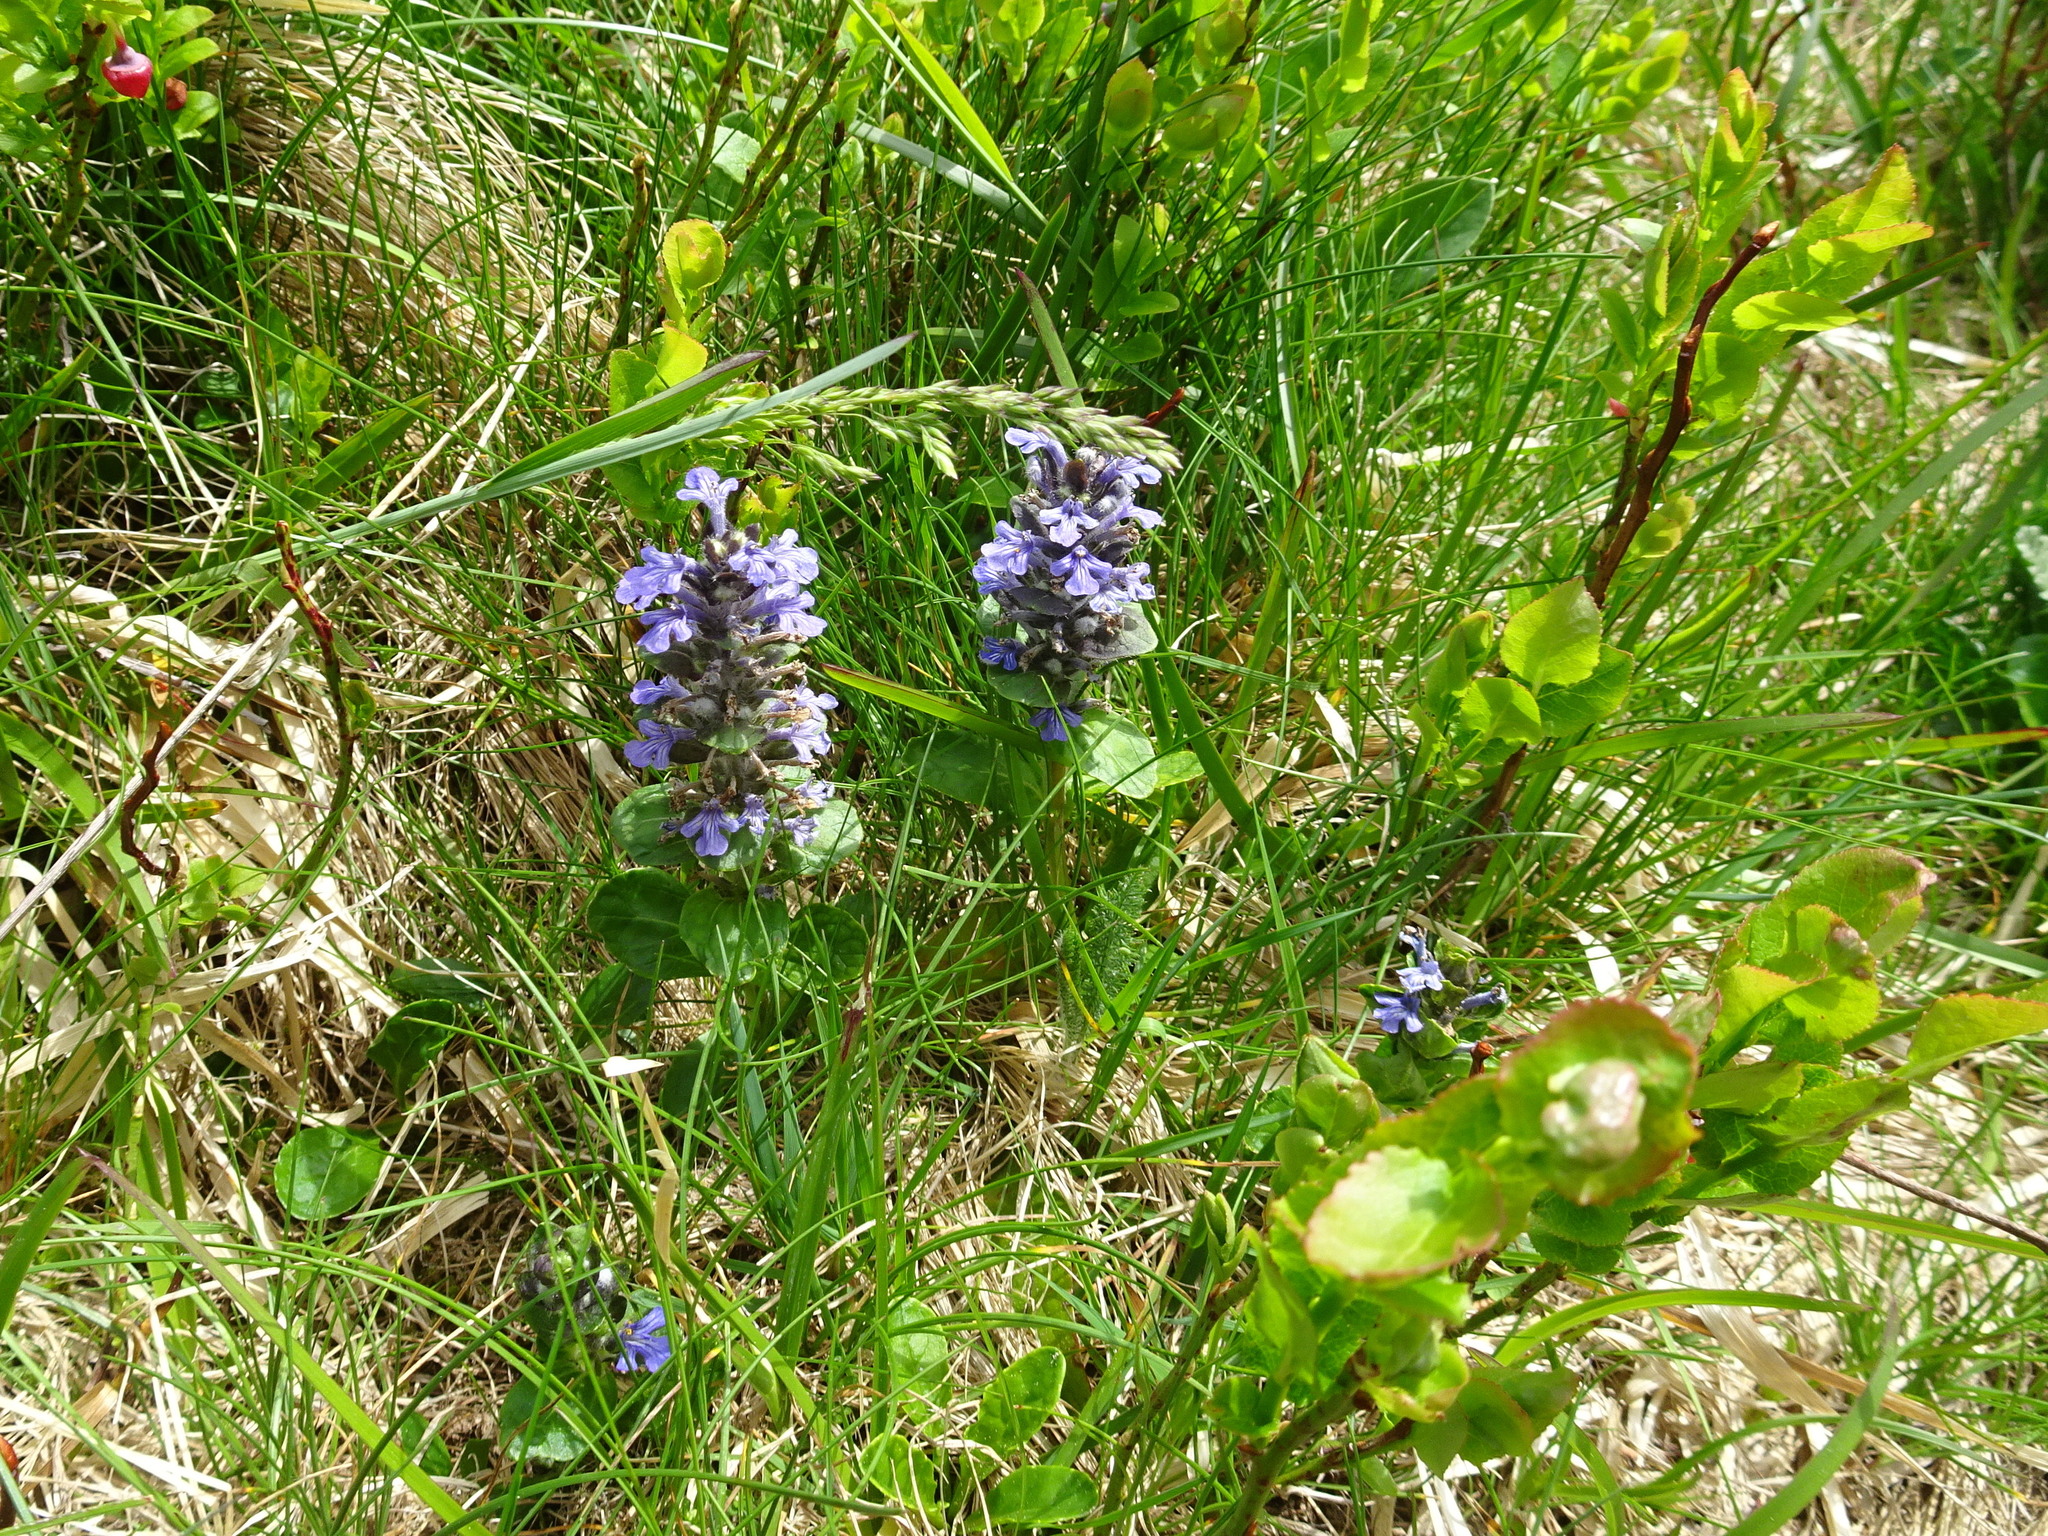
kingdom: Plantae
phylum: Tracheophyta
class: Magnoliopsida
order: Lamiales
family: Lamiaceae
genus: Ajuga
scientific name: Ajuga reptans
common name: Bugle
